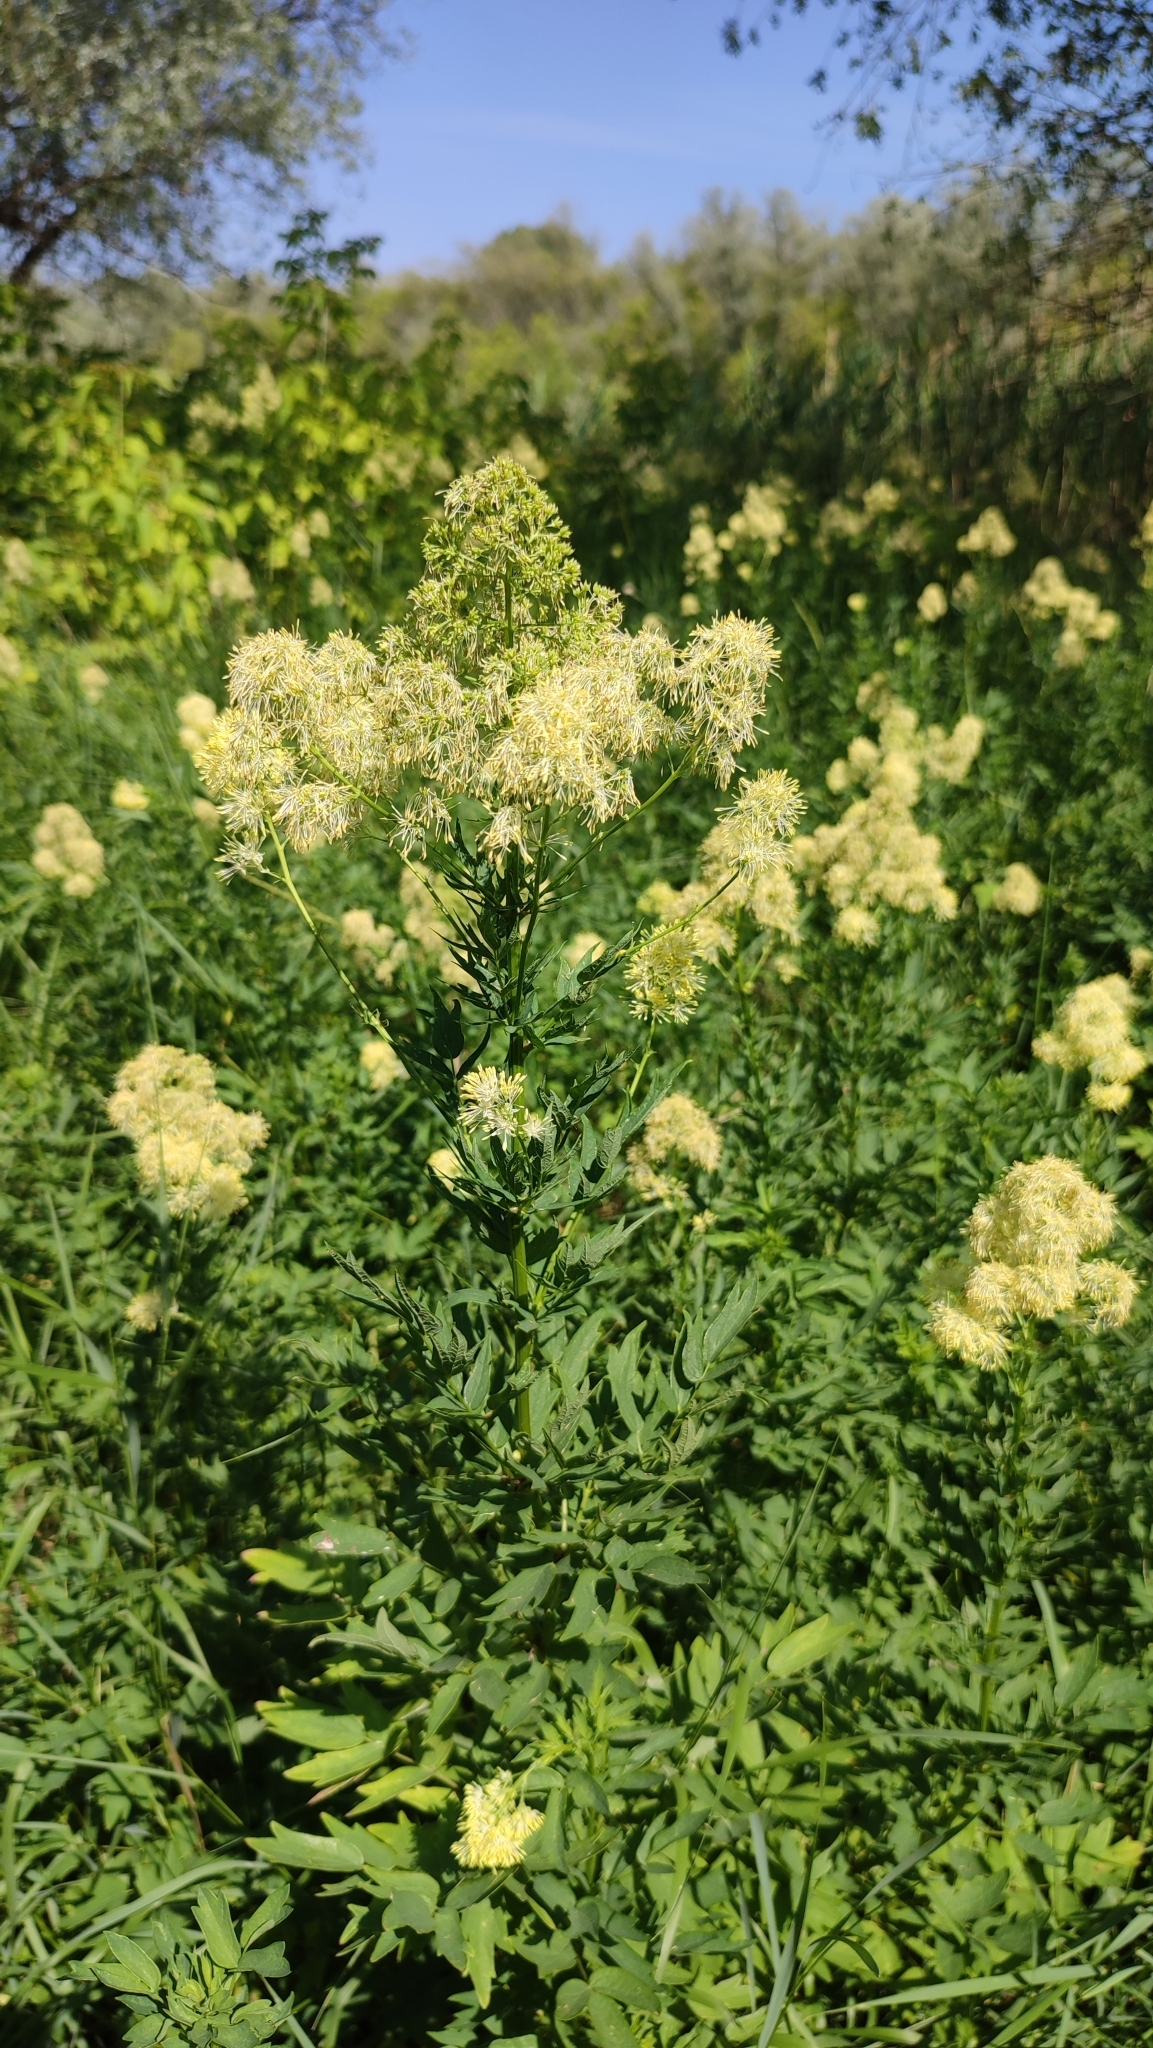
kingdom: Plantae
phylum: Tracheophyta
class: Magnoliopsida
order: Ranunculales
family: Ranunculaceae
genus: Thalictrum
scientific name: Thalictrum flavum
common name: Common meadow-rue
